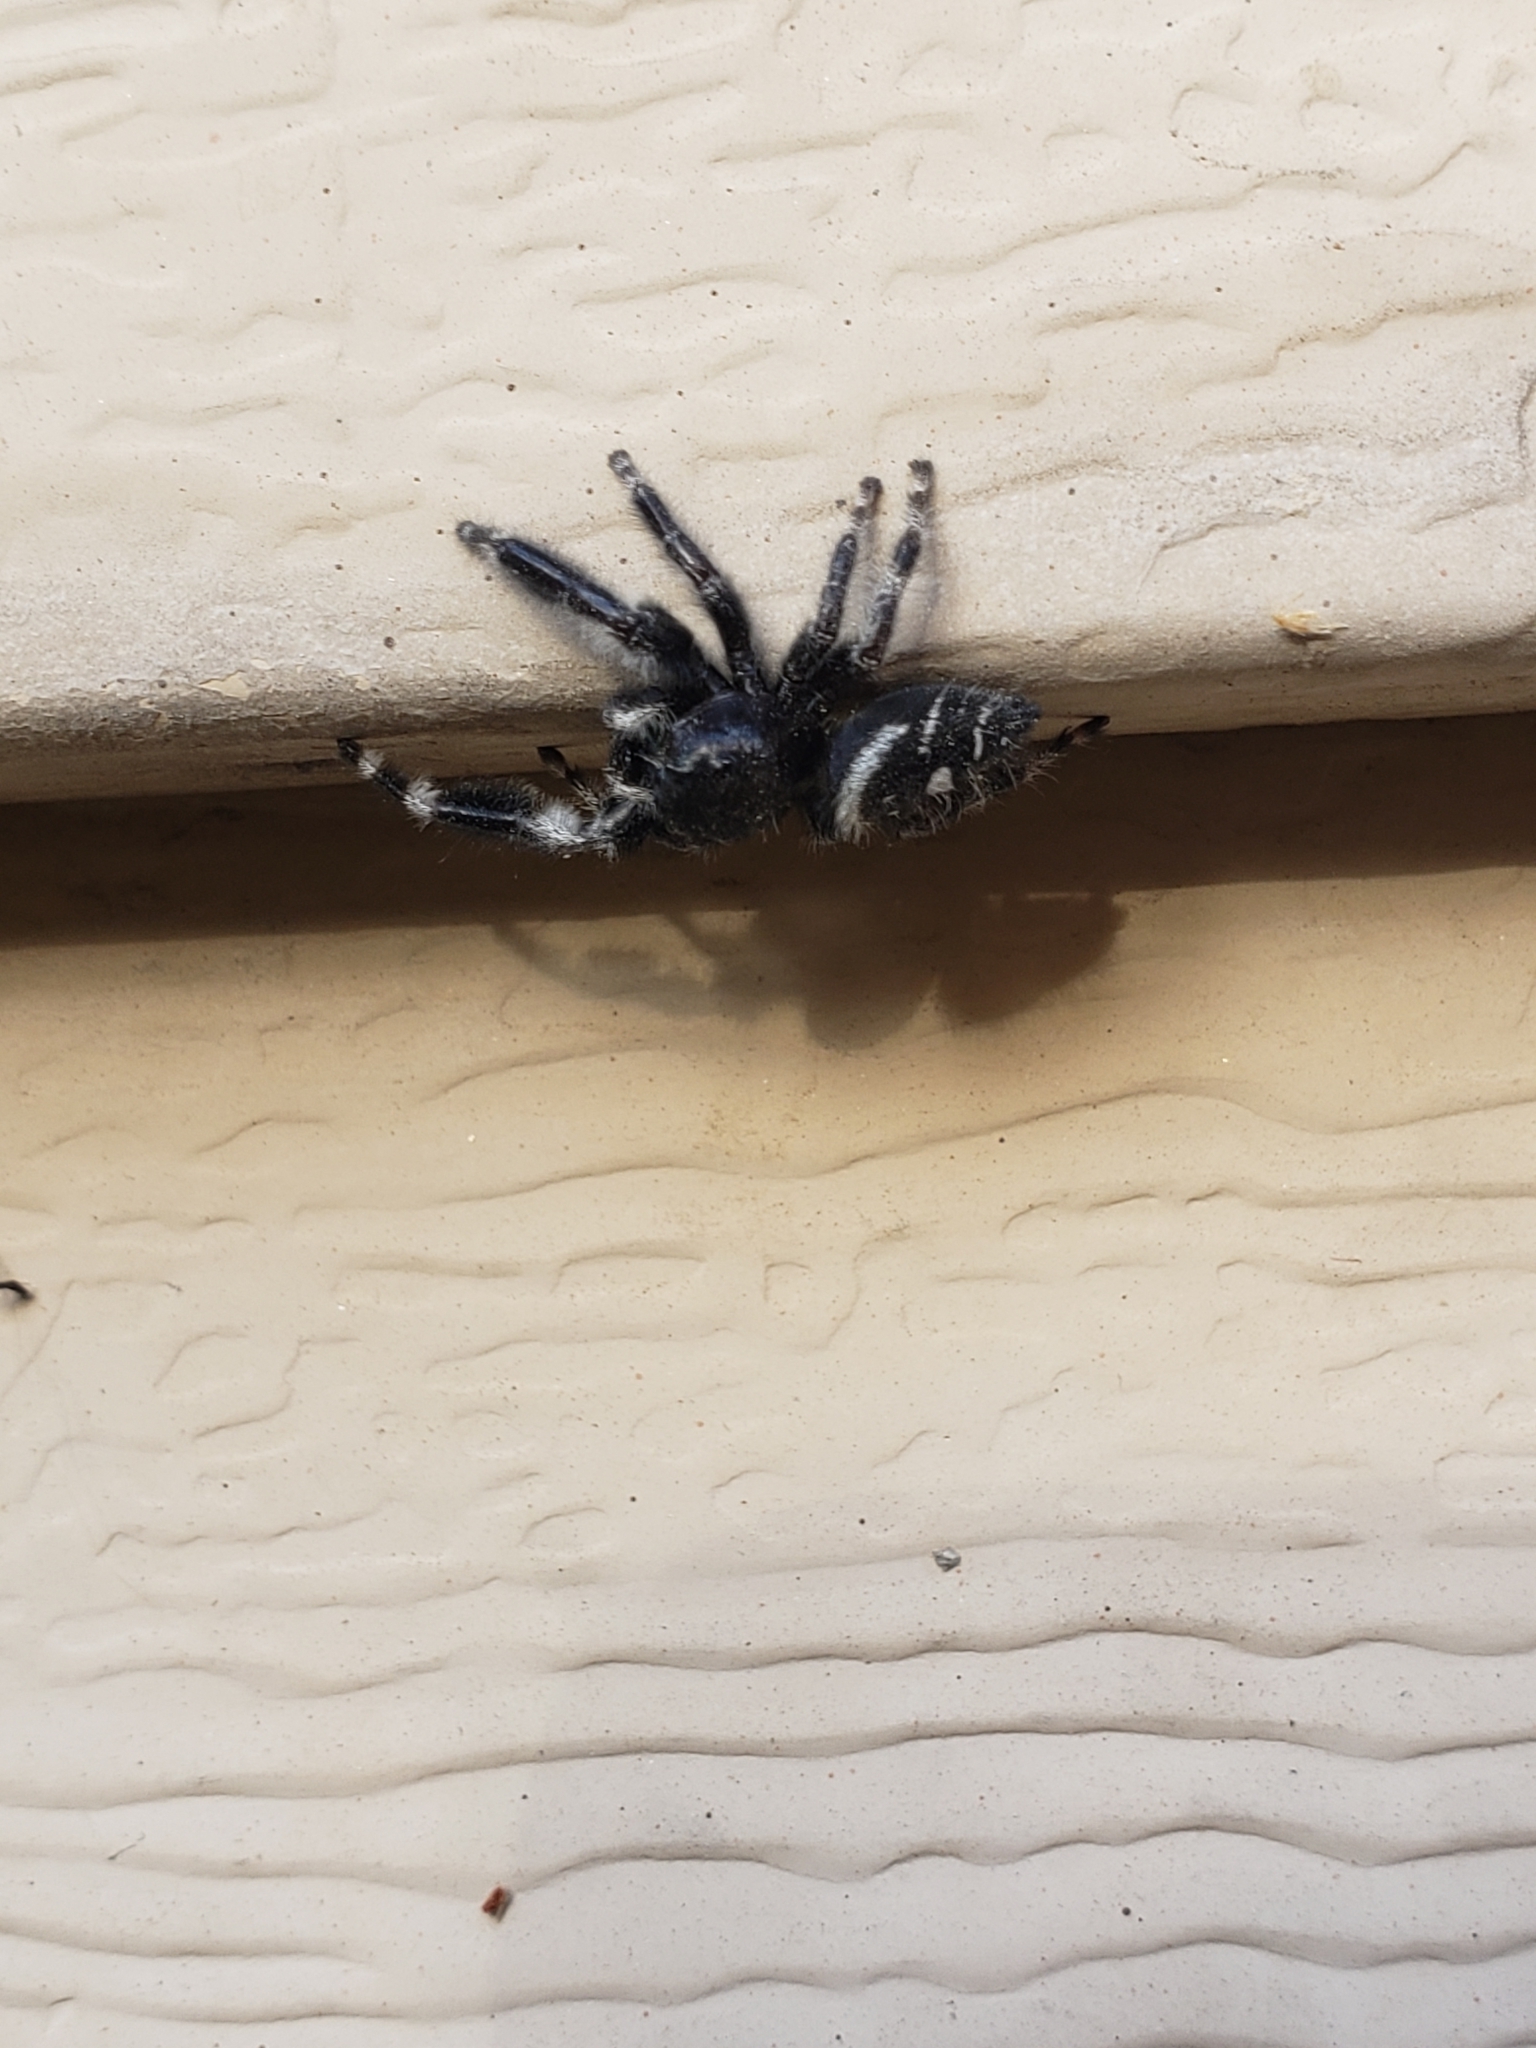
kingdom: Animalia
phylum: Arthropoda
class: Arachnida
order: Araneae
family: Salticidae
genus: Phidippus
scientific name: Phidippus audax
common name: Bold jumper
